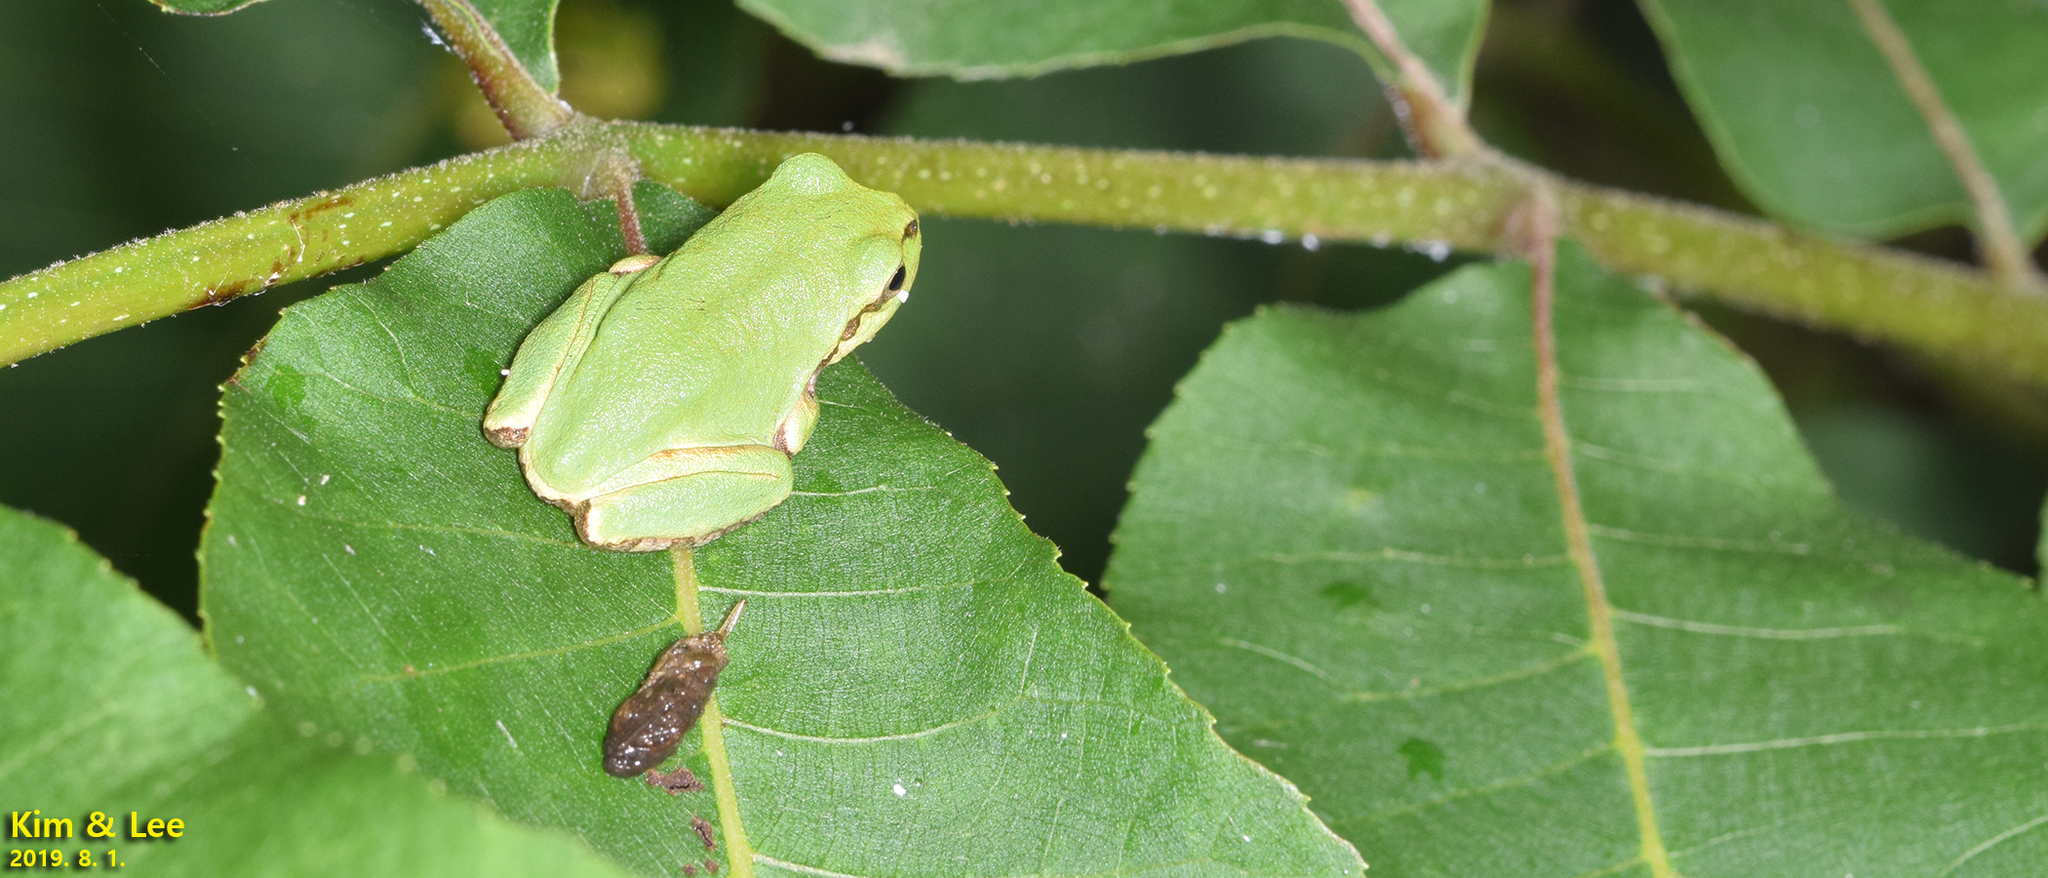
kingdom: Animalia
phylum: Chordata
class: Amphibia
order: Anura
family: Hylidae
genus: Dryophytes
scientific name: Dryophytes japonicus
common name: Japanese treefrog
